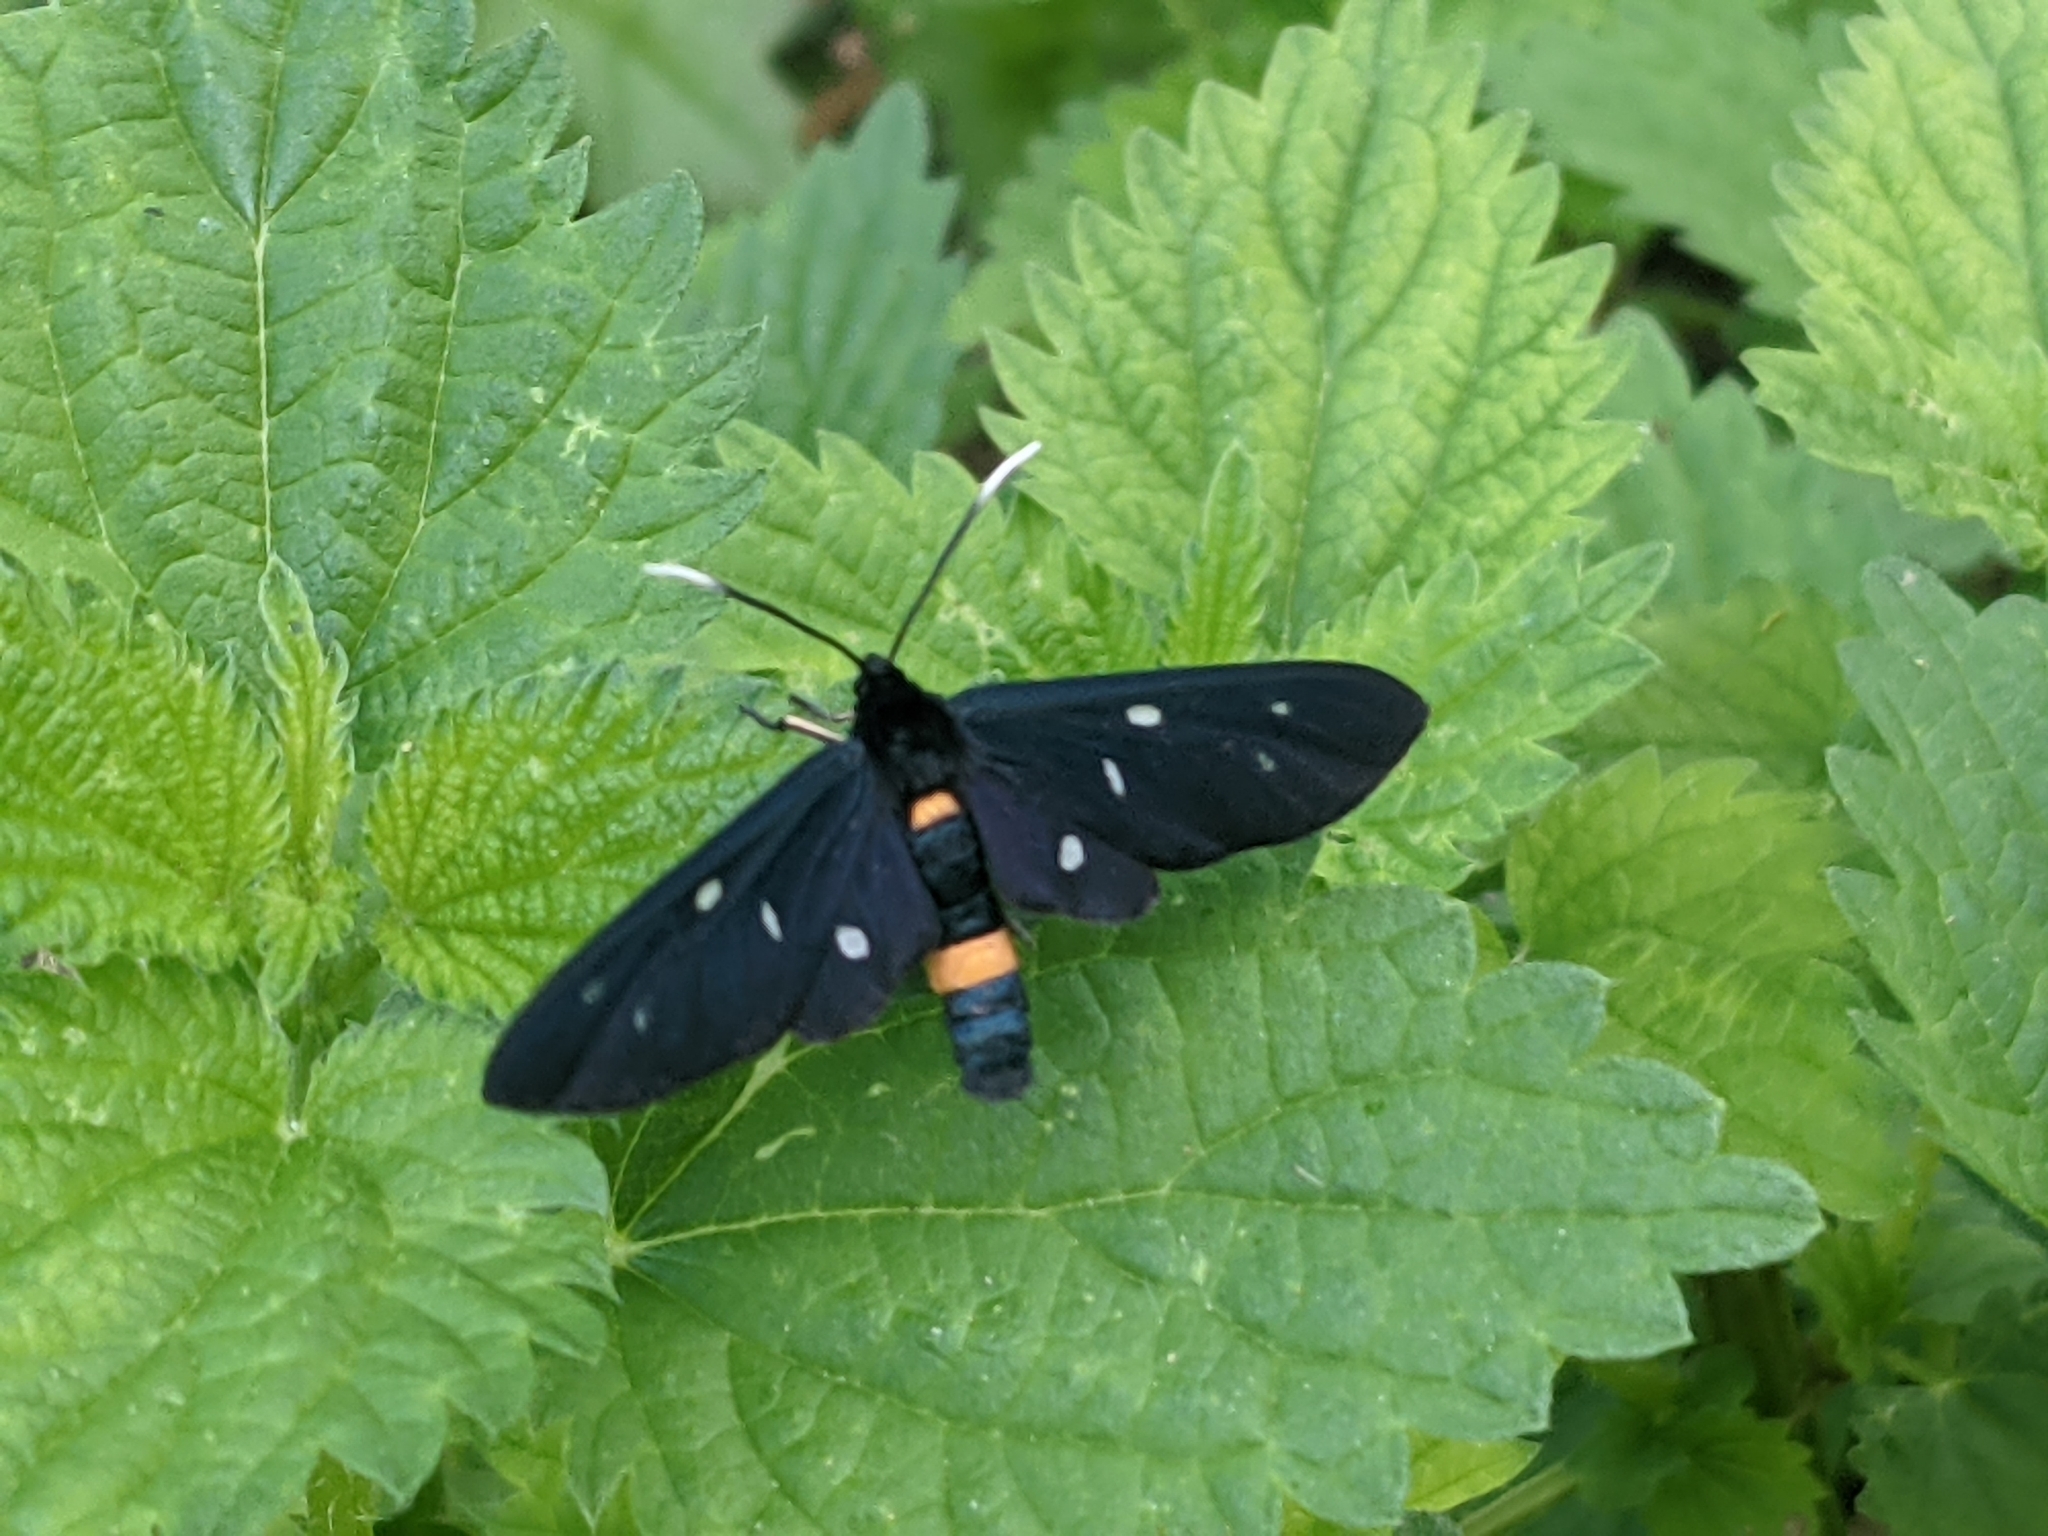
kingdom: Animalia
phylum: Arthropoda
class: Insecta
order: Lepidoptera
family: Erebidae
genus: Amata
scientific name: Amata phegea
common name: Nine-spotted
